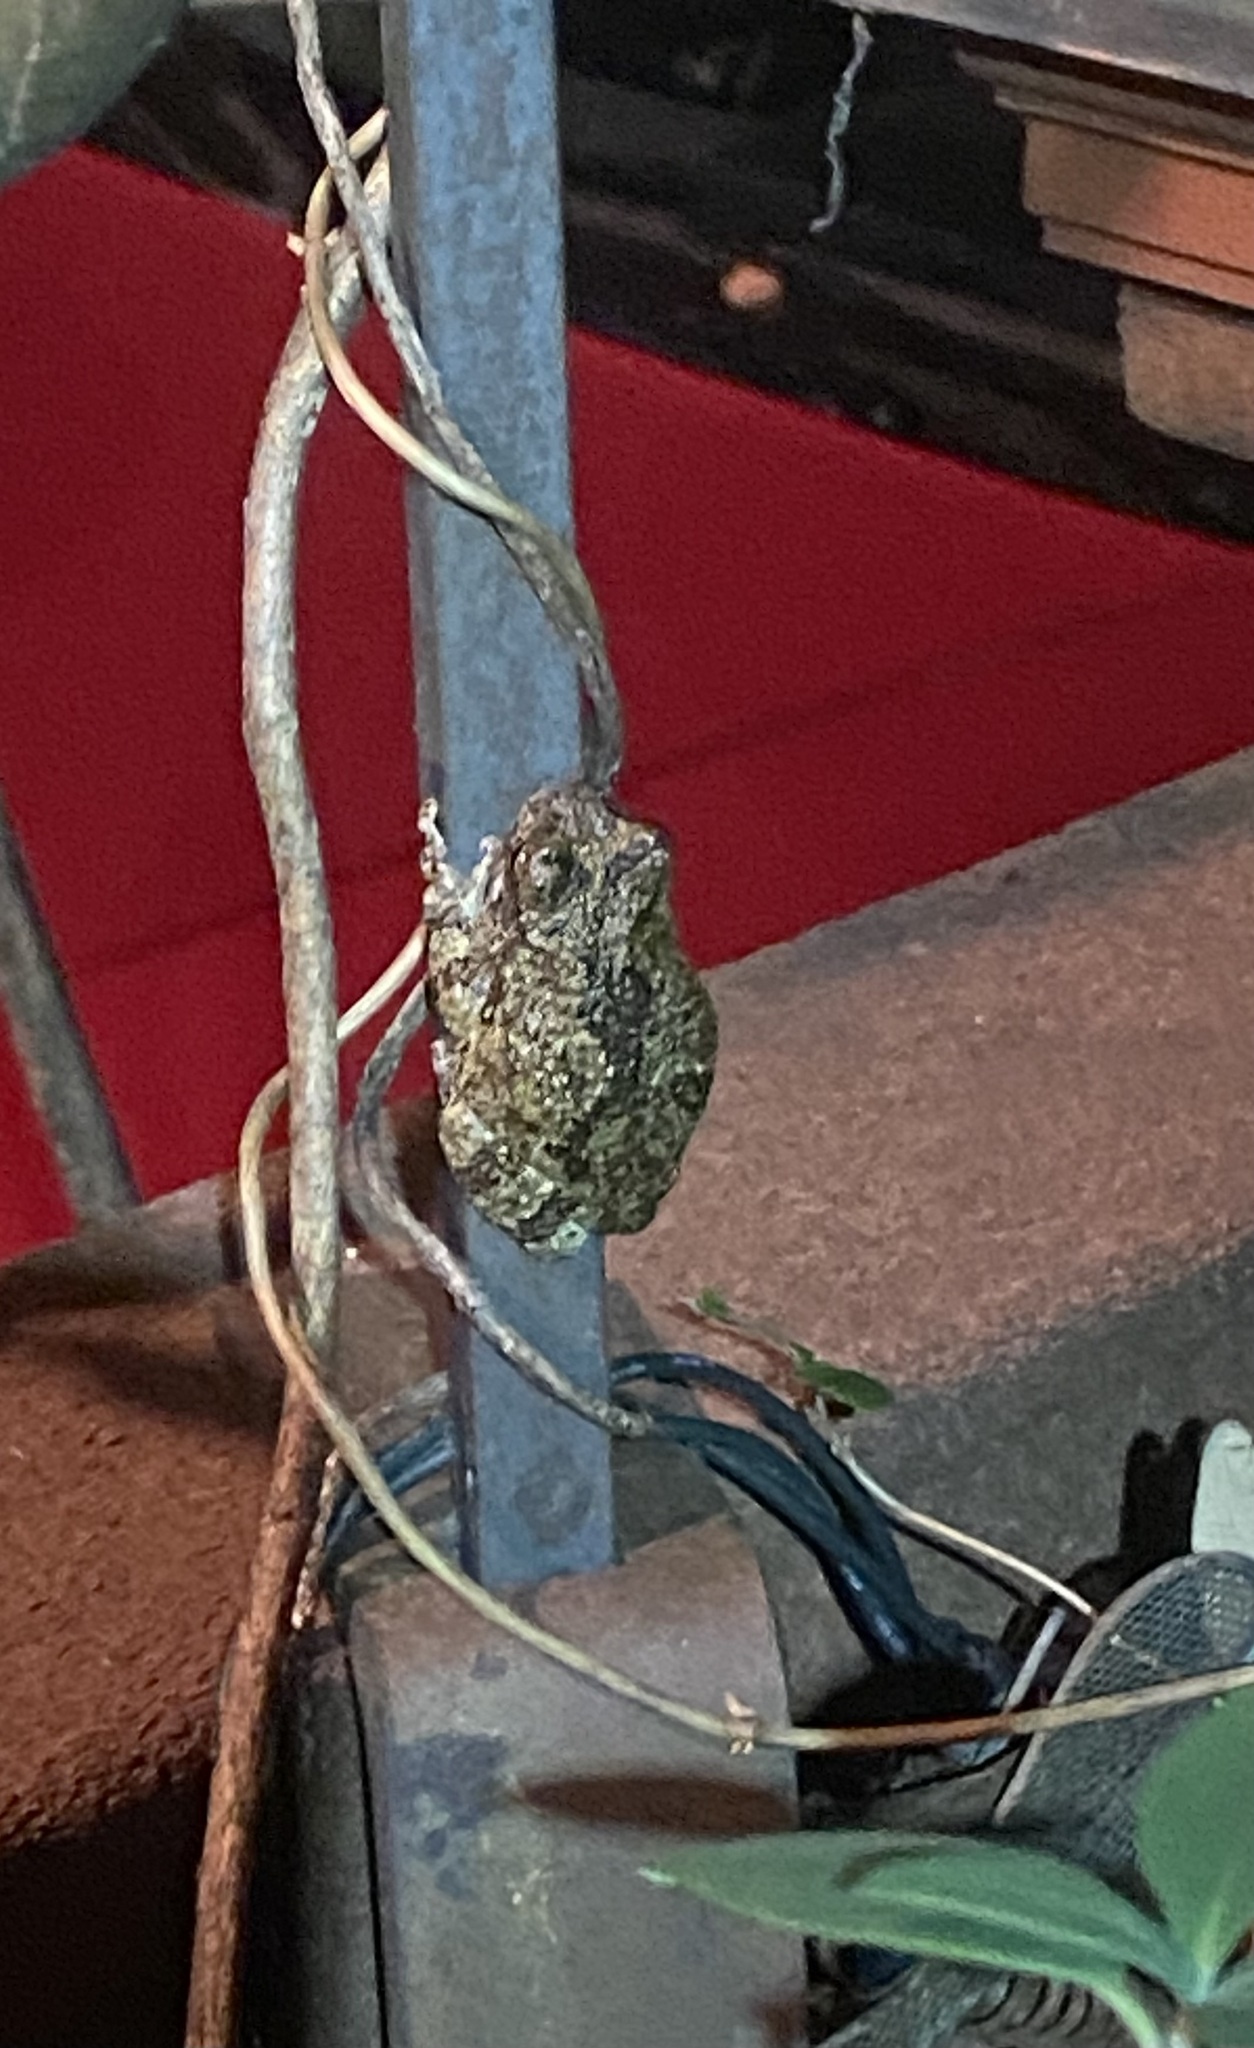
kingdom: Animalia
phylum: Chordata
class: Amphibia
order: Anura
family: Hylidae
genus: Dryophytes
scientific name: Dryophytes chrysoscelis
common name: Cope's gray treefrog
